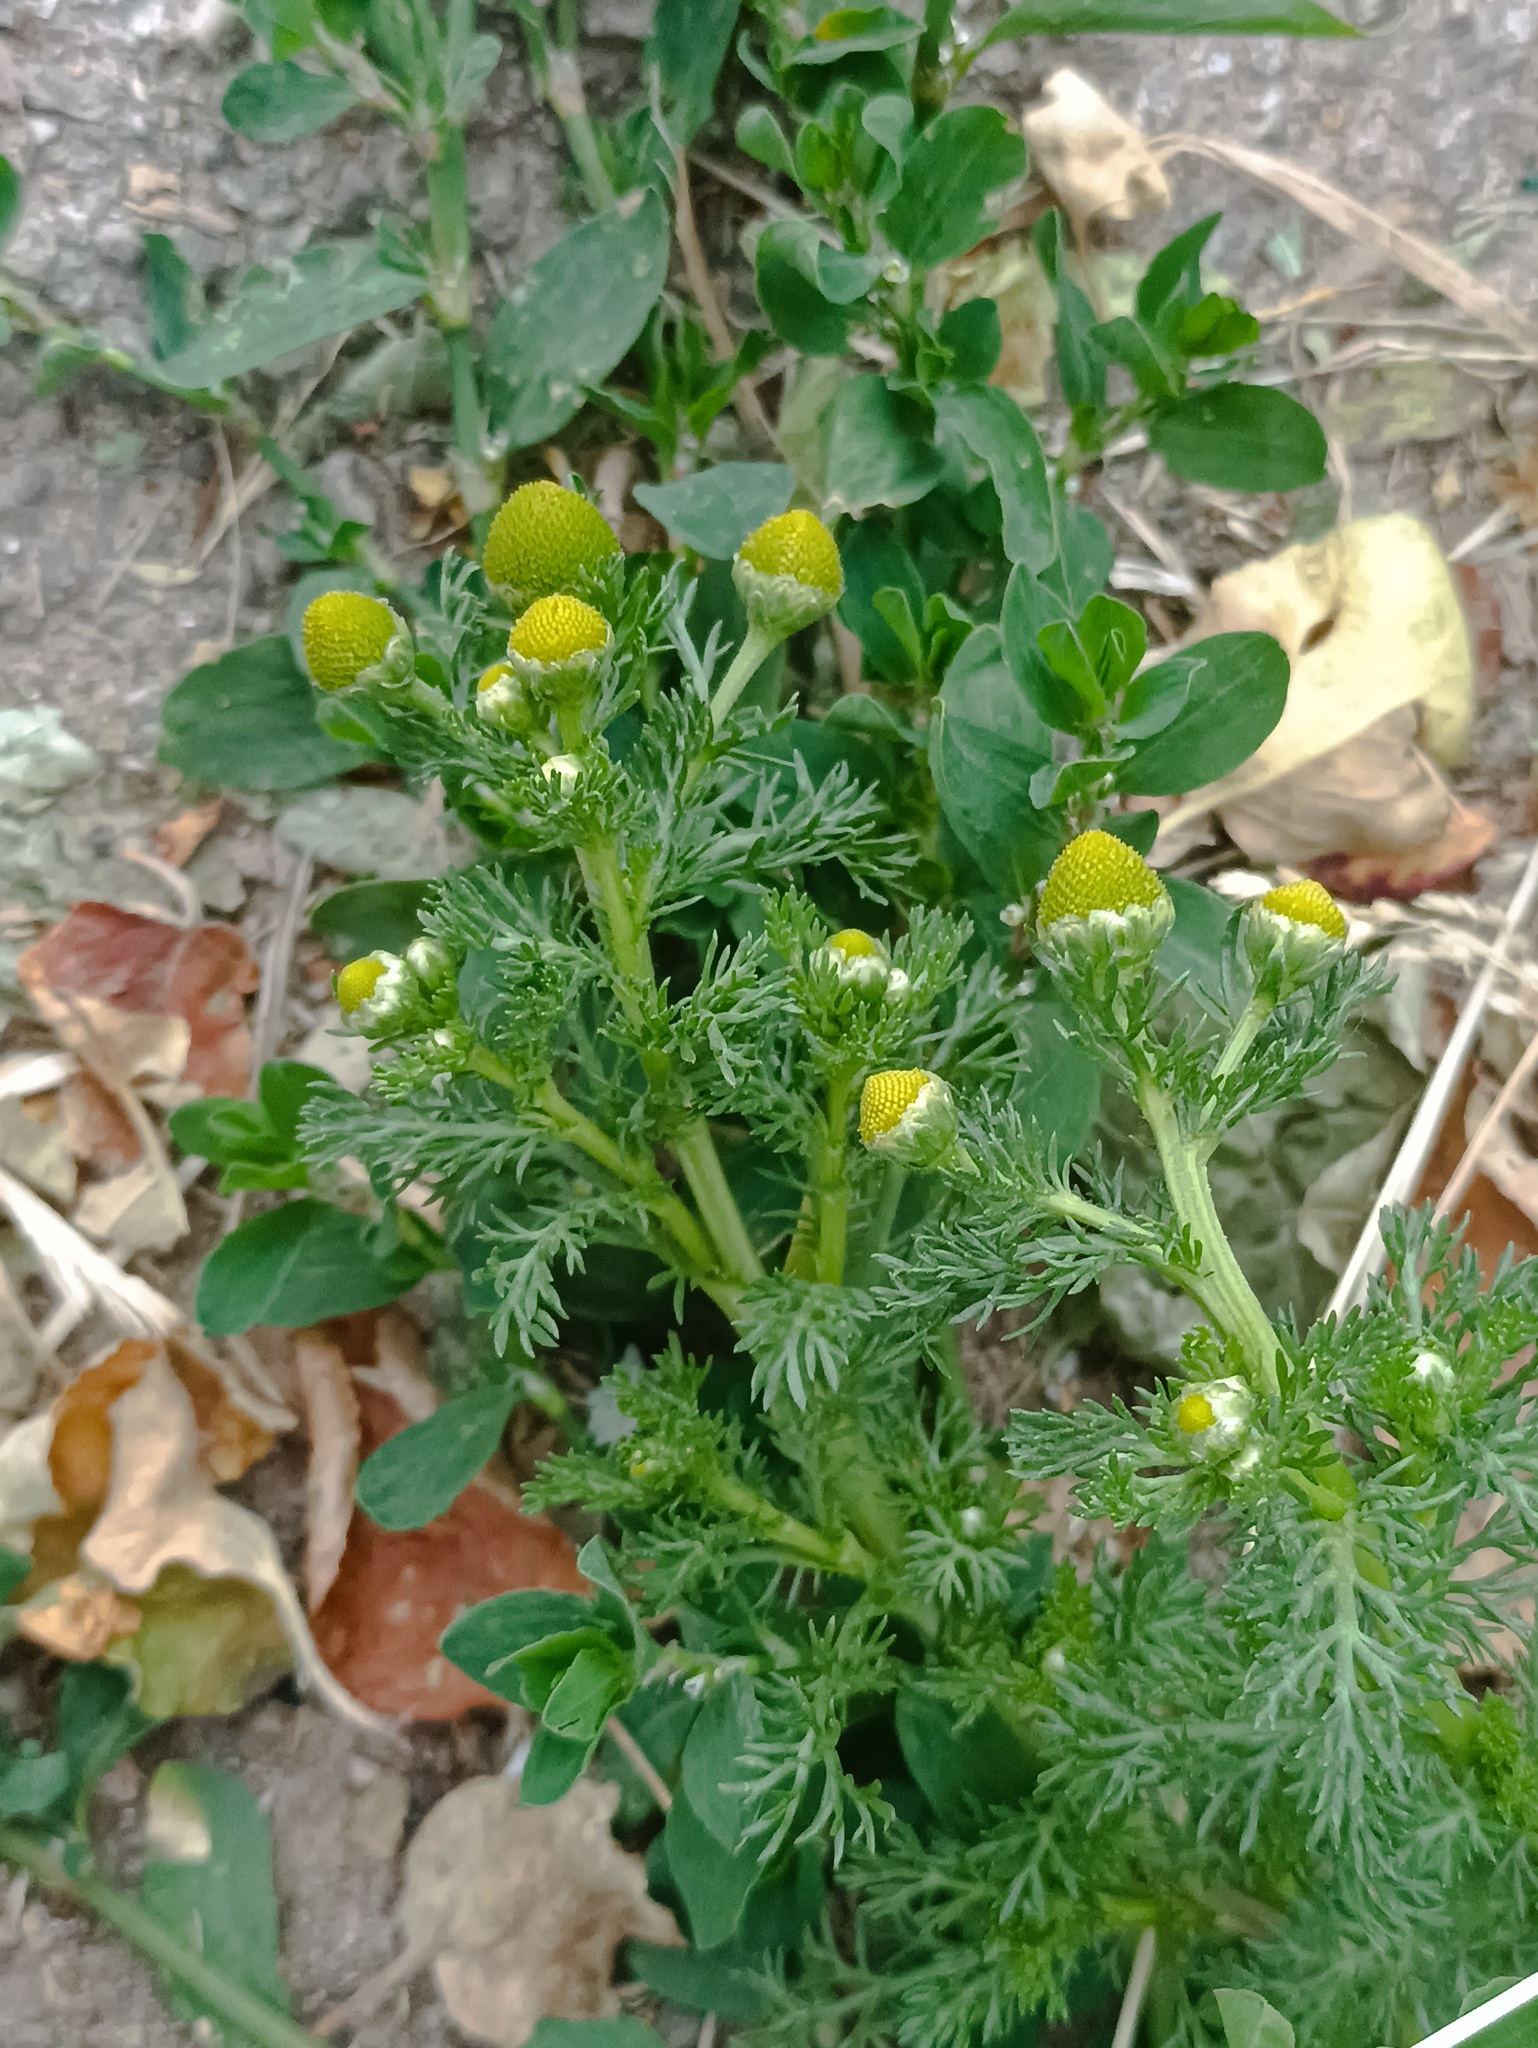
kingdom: Plantae
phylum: Tracheophyta
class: Magnoliopsida
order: Asterales
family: Asteraceae
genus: Matricaria
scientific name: Matricaria discoidea
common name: Disc mayweed
